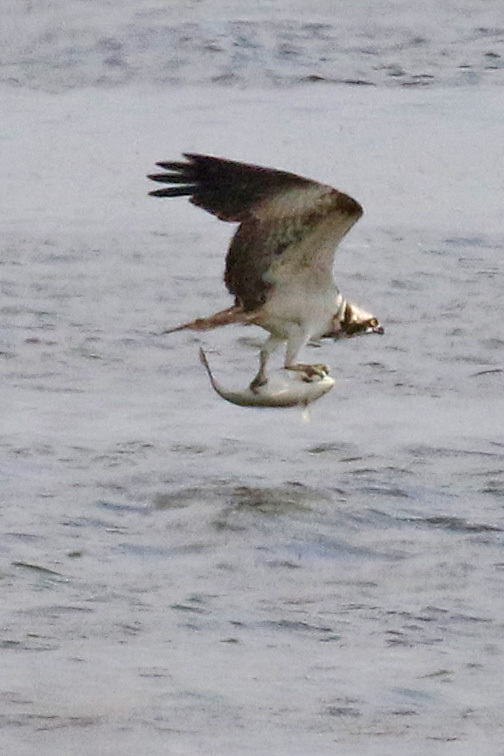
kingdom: Animalia
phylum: Chordata
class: Aves
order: Accipitriformes
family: Pandionidae
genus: Pandion
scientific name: Pandion haliaetus
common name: Osprey
